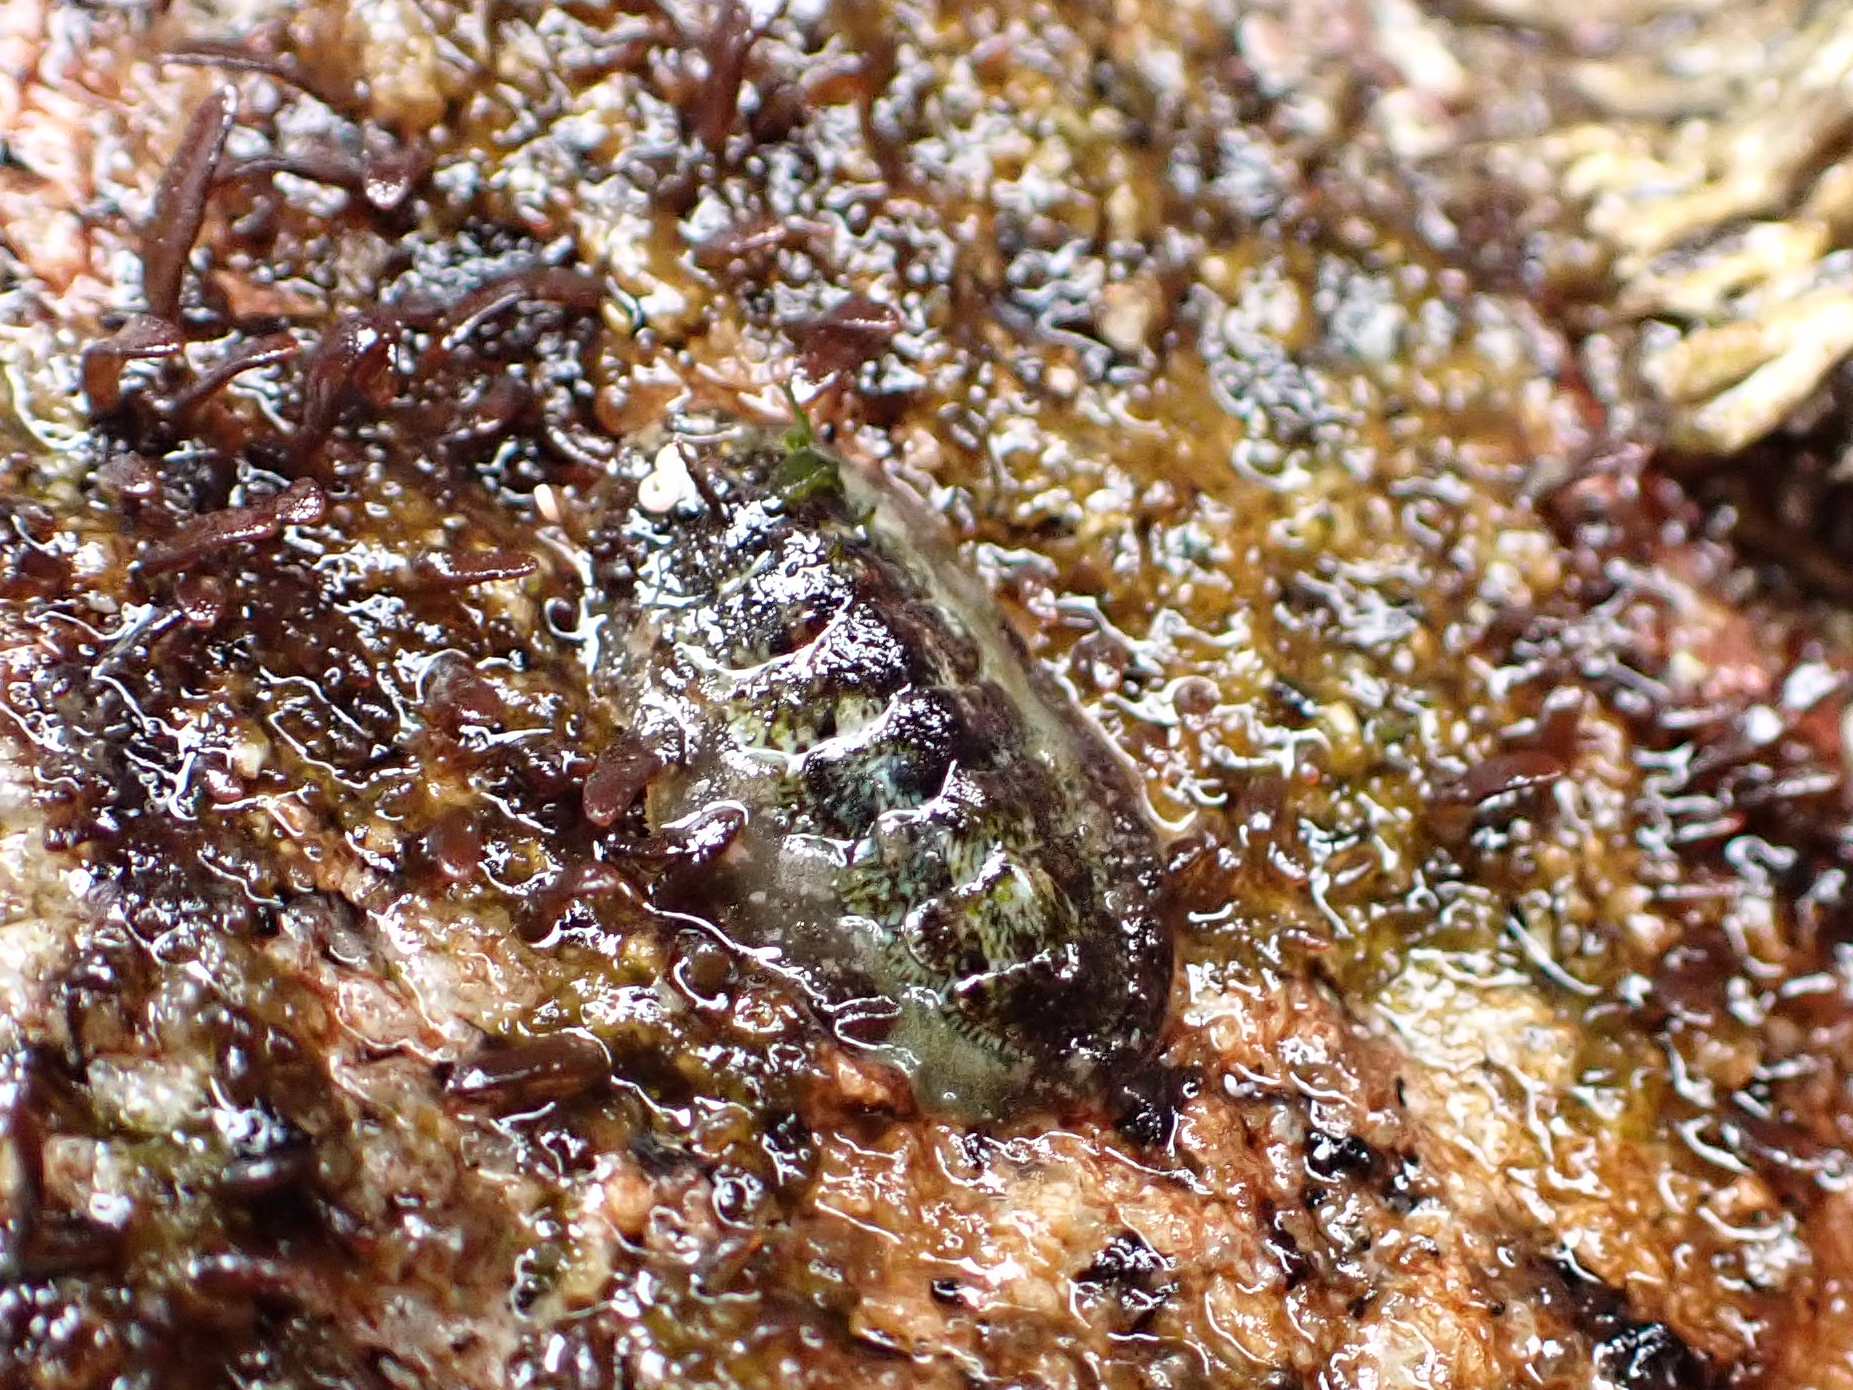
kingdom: Animalia
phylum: Mollusca
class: Polyplacophora
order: Chitonida
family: Tonicellidae
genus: Cyanoplax
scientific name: Cyanoplax dentiens
